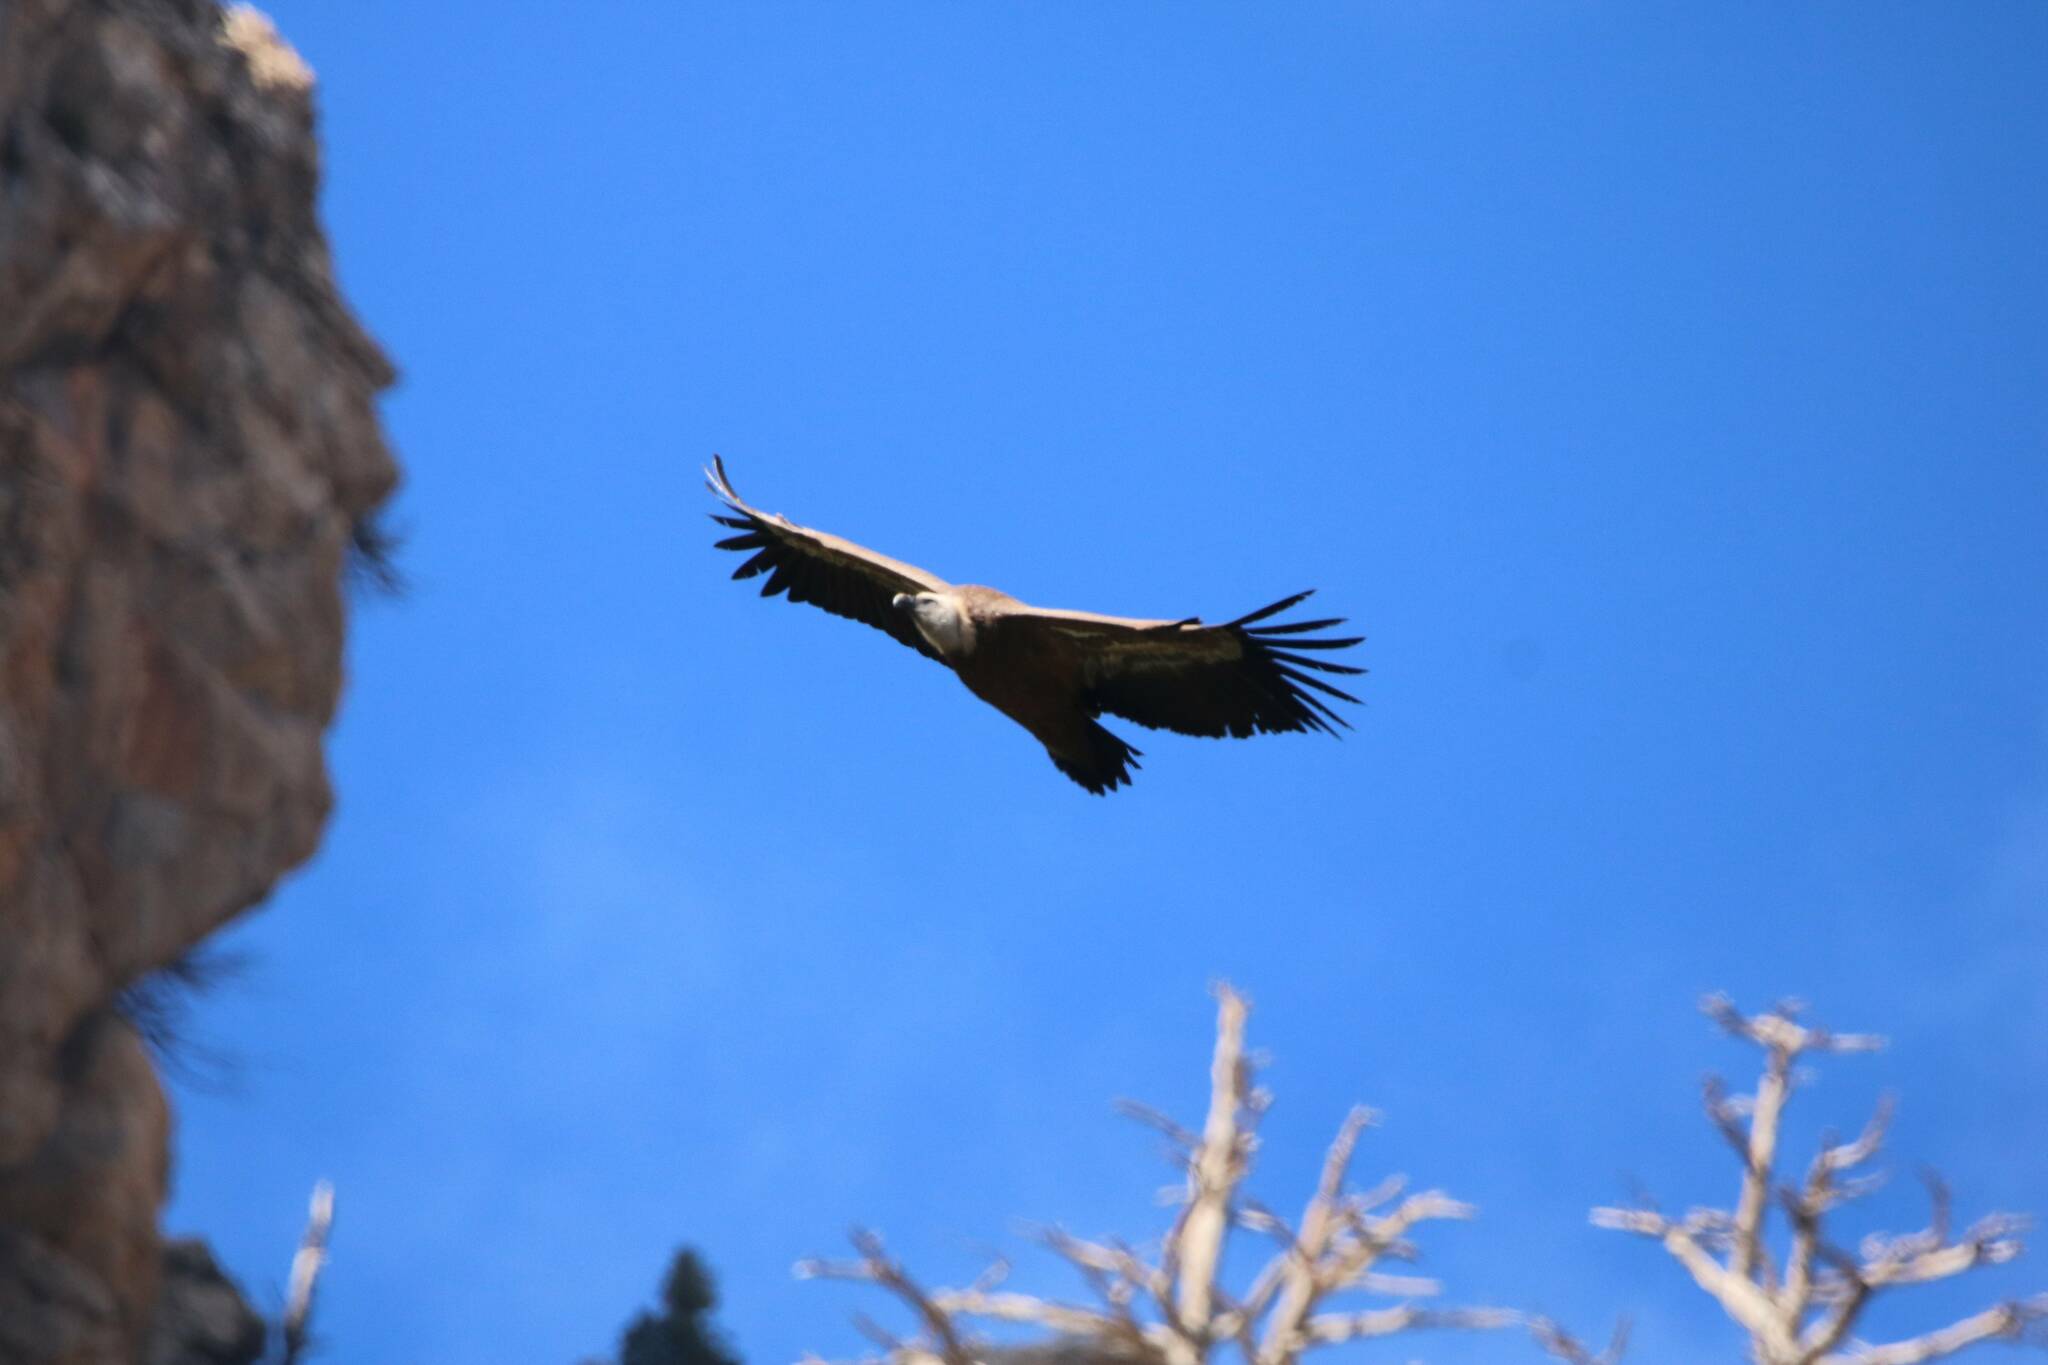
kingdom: Animalia
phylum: Chordata
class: Aves
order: Accipitriformes
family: Accipitridae
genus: Gyps
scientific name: Gyps fulvus
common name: Griffon vulture
